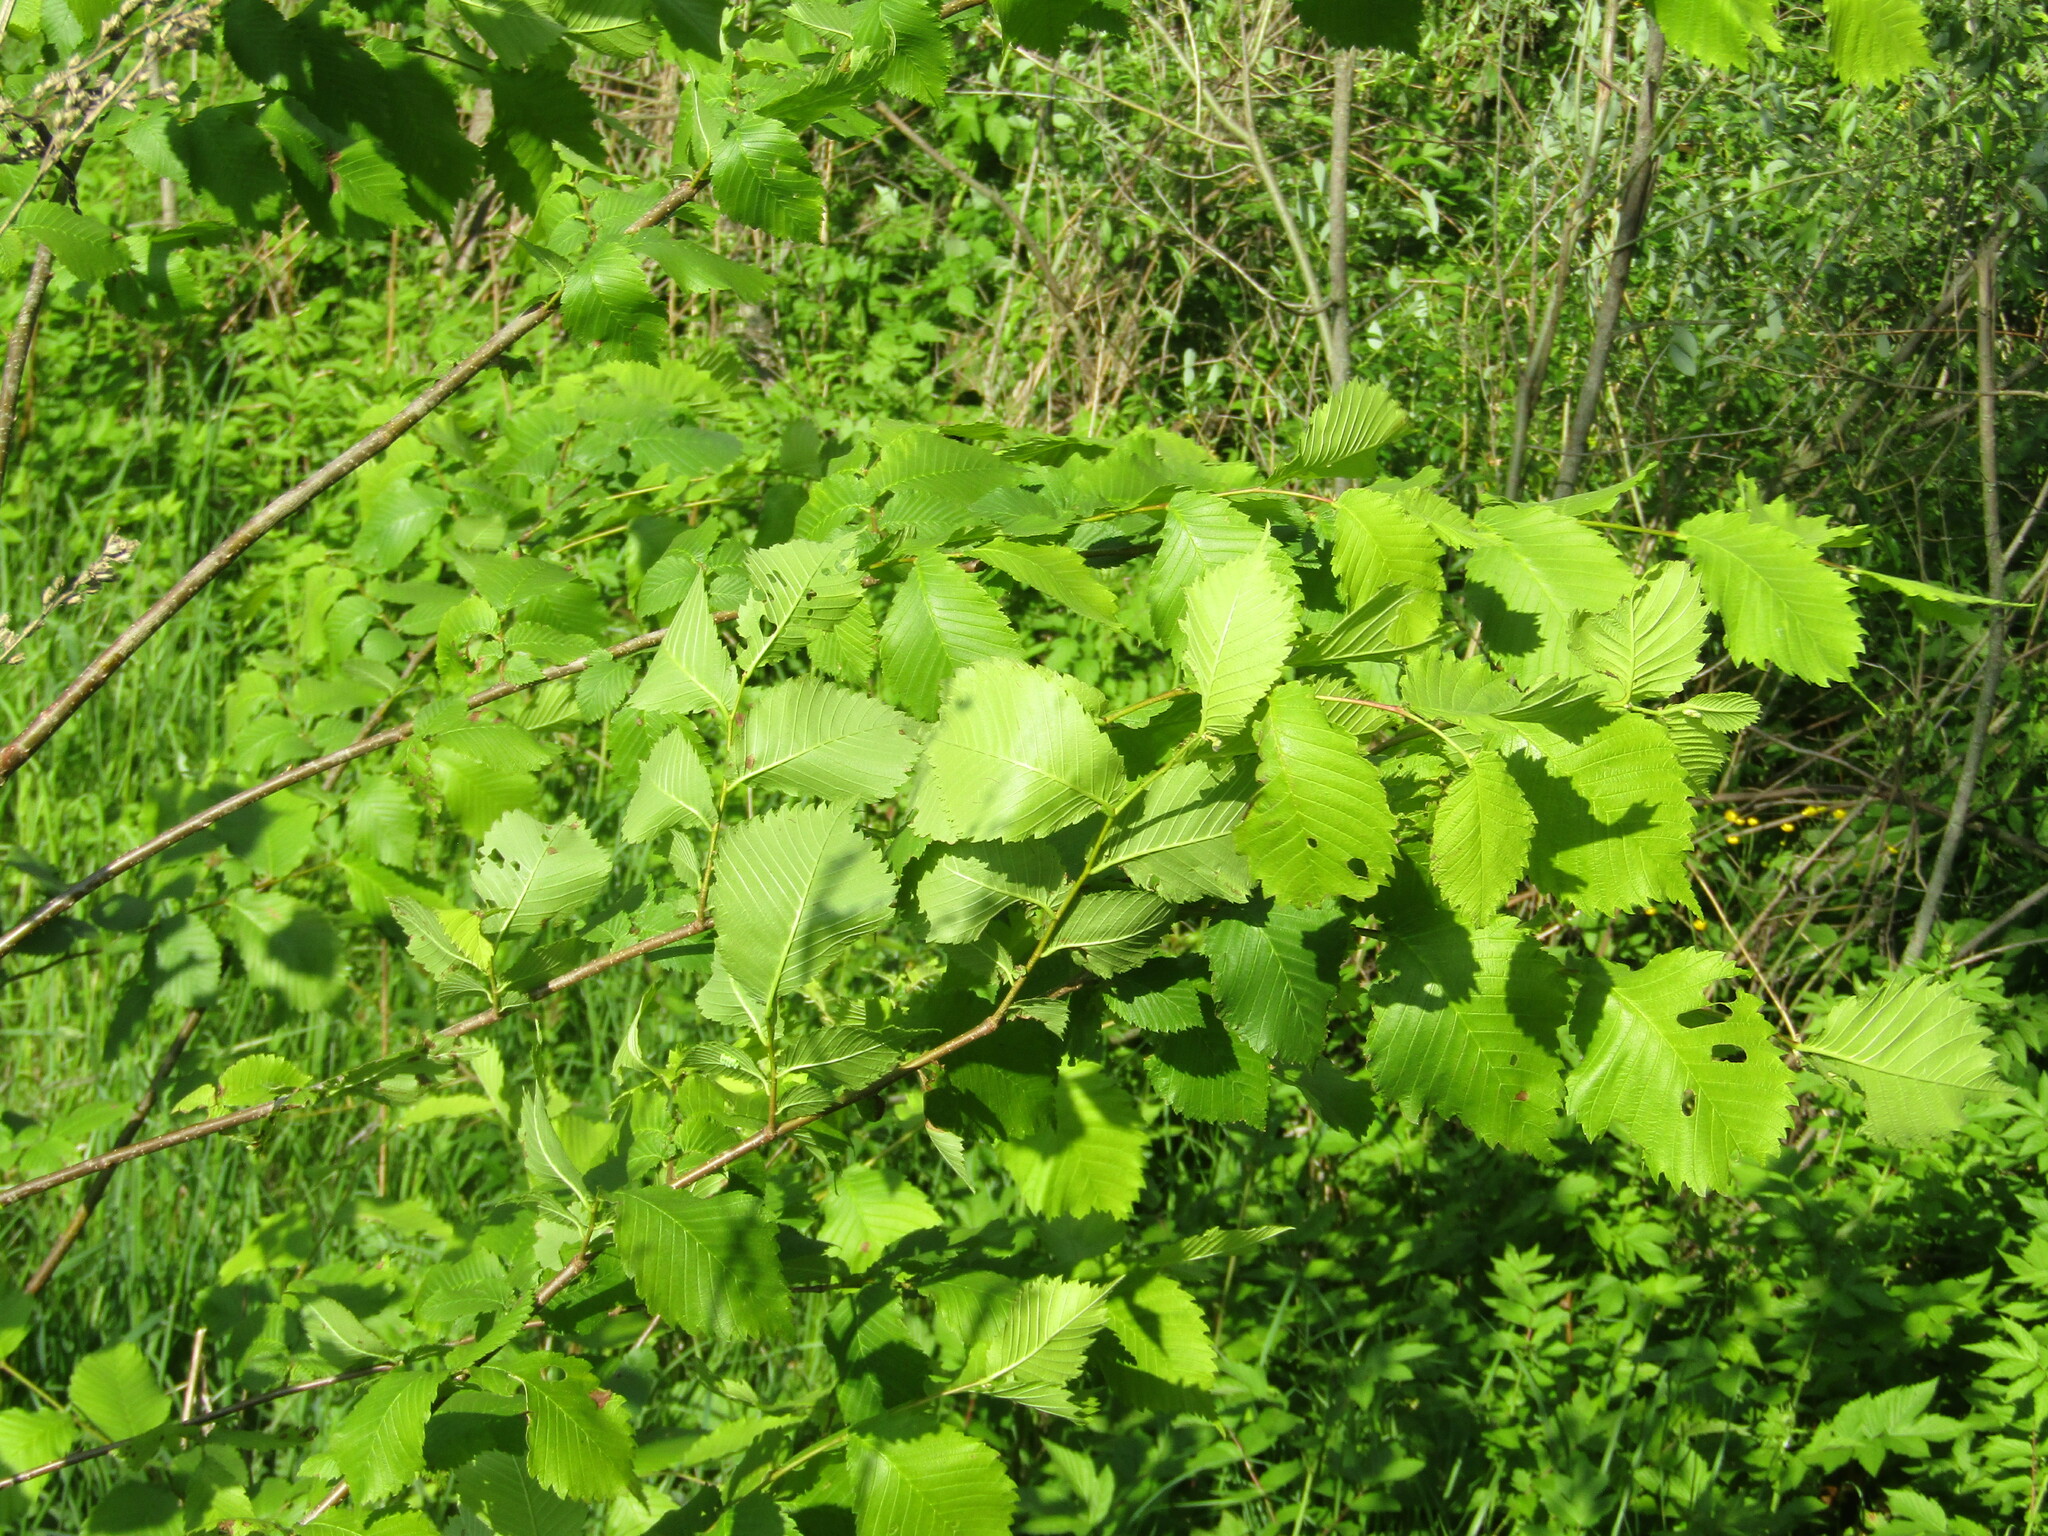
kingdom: Plantae
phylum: Tracheophyta
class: Magnoliopsida
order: Rosales
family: Ulmaceae
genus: Ulmus
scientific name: Ulmus laevis
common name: European white-elm
